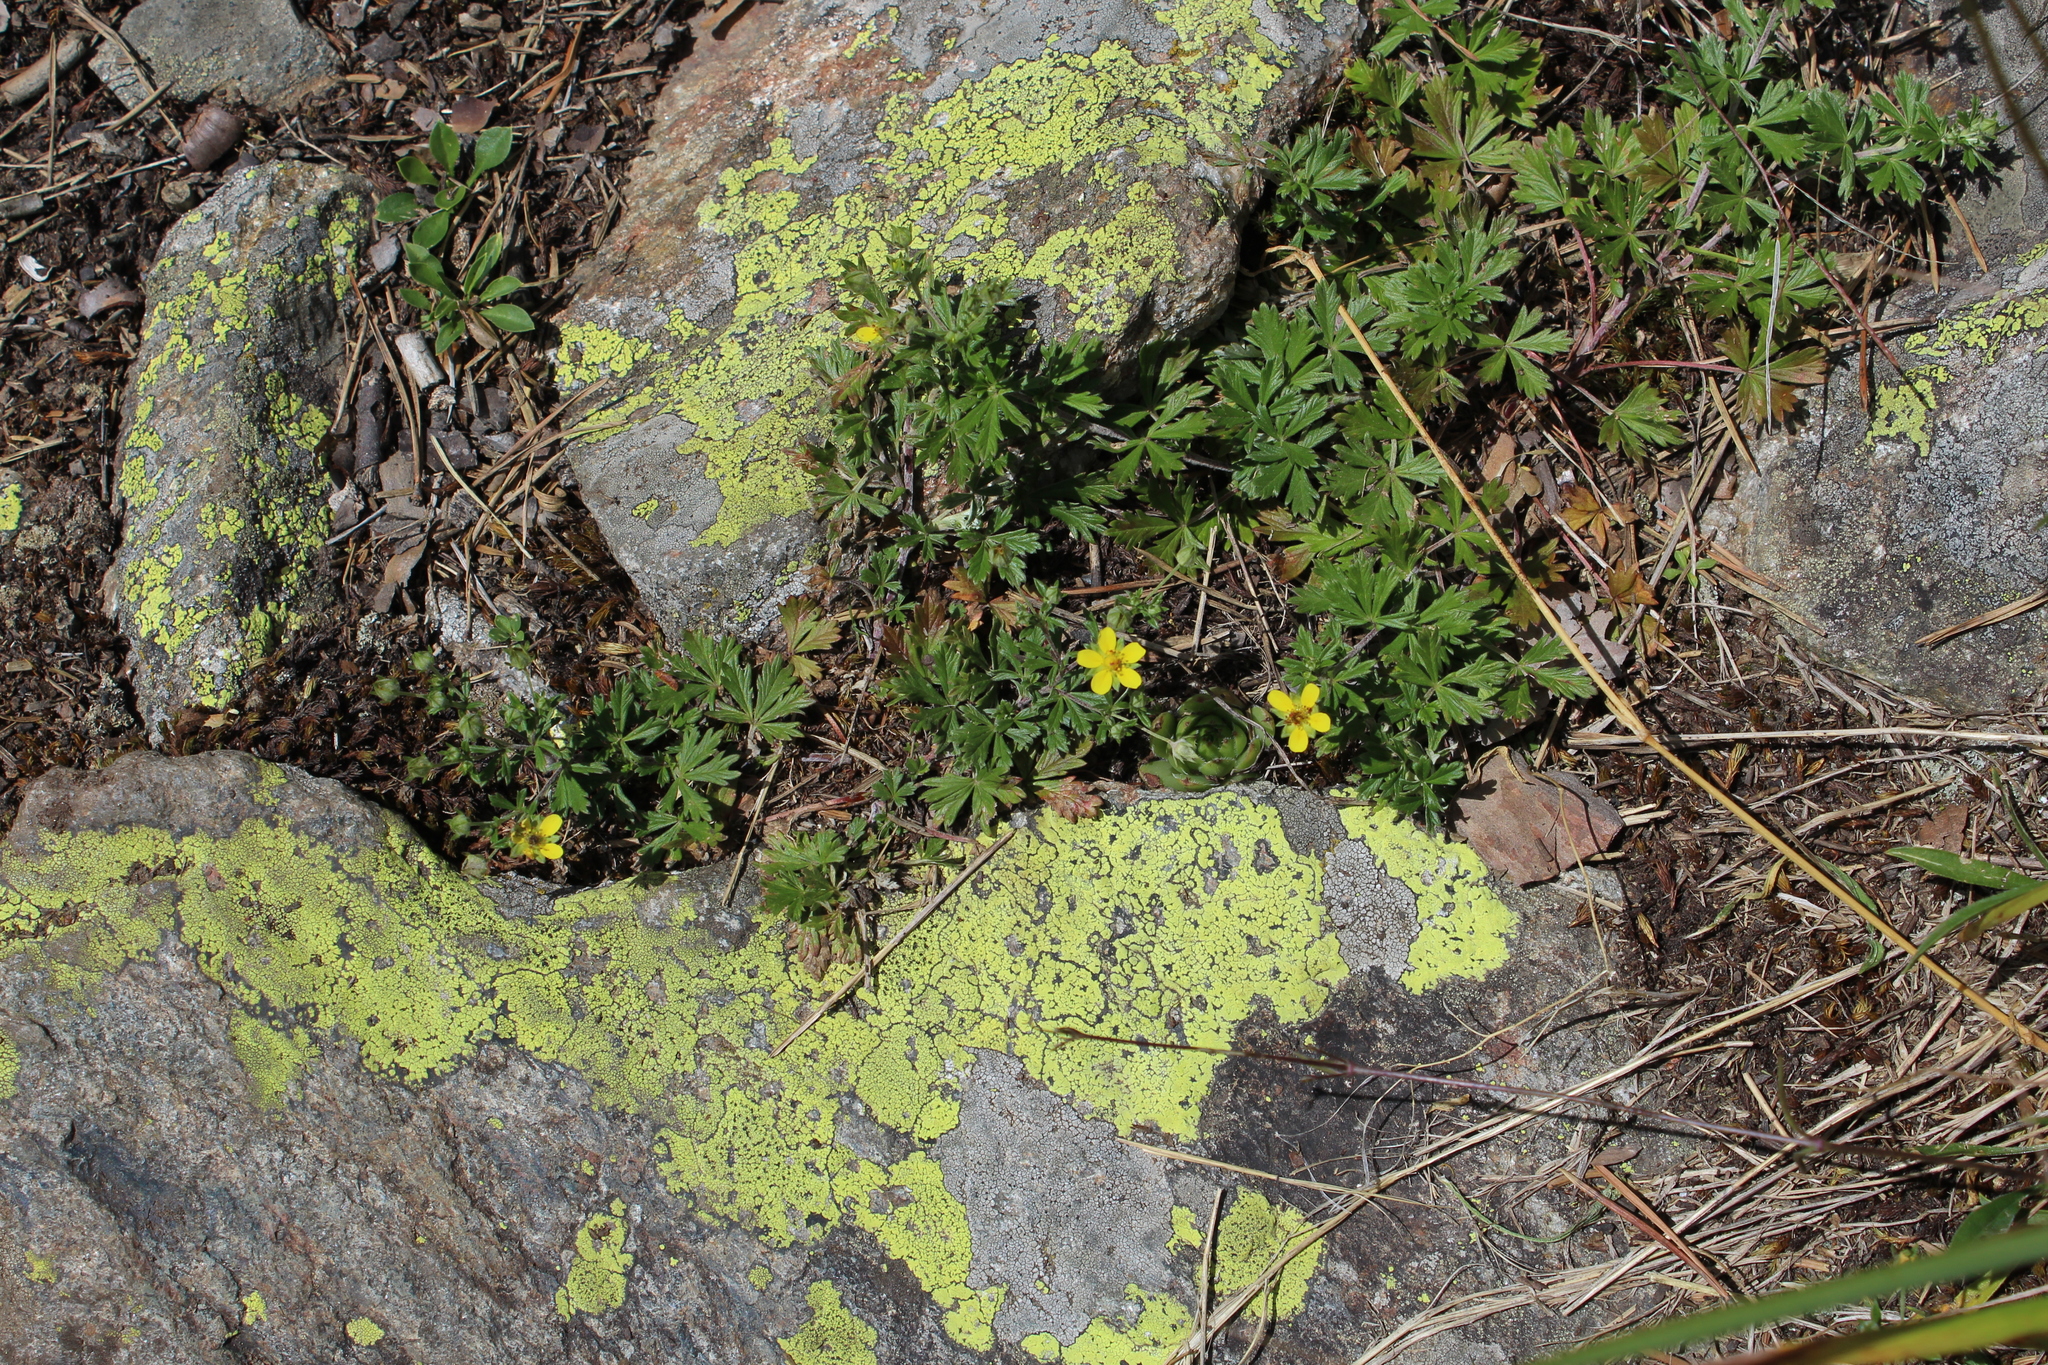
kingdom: Plantae
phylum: Tracheophyta
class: Magnoliopsida
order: Rosales
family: Rosaceae
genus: Potentilla
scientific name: Potentilla argentea
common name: Hoary cinquefoil
